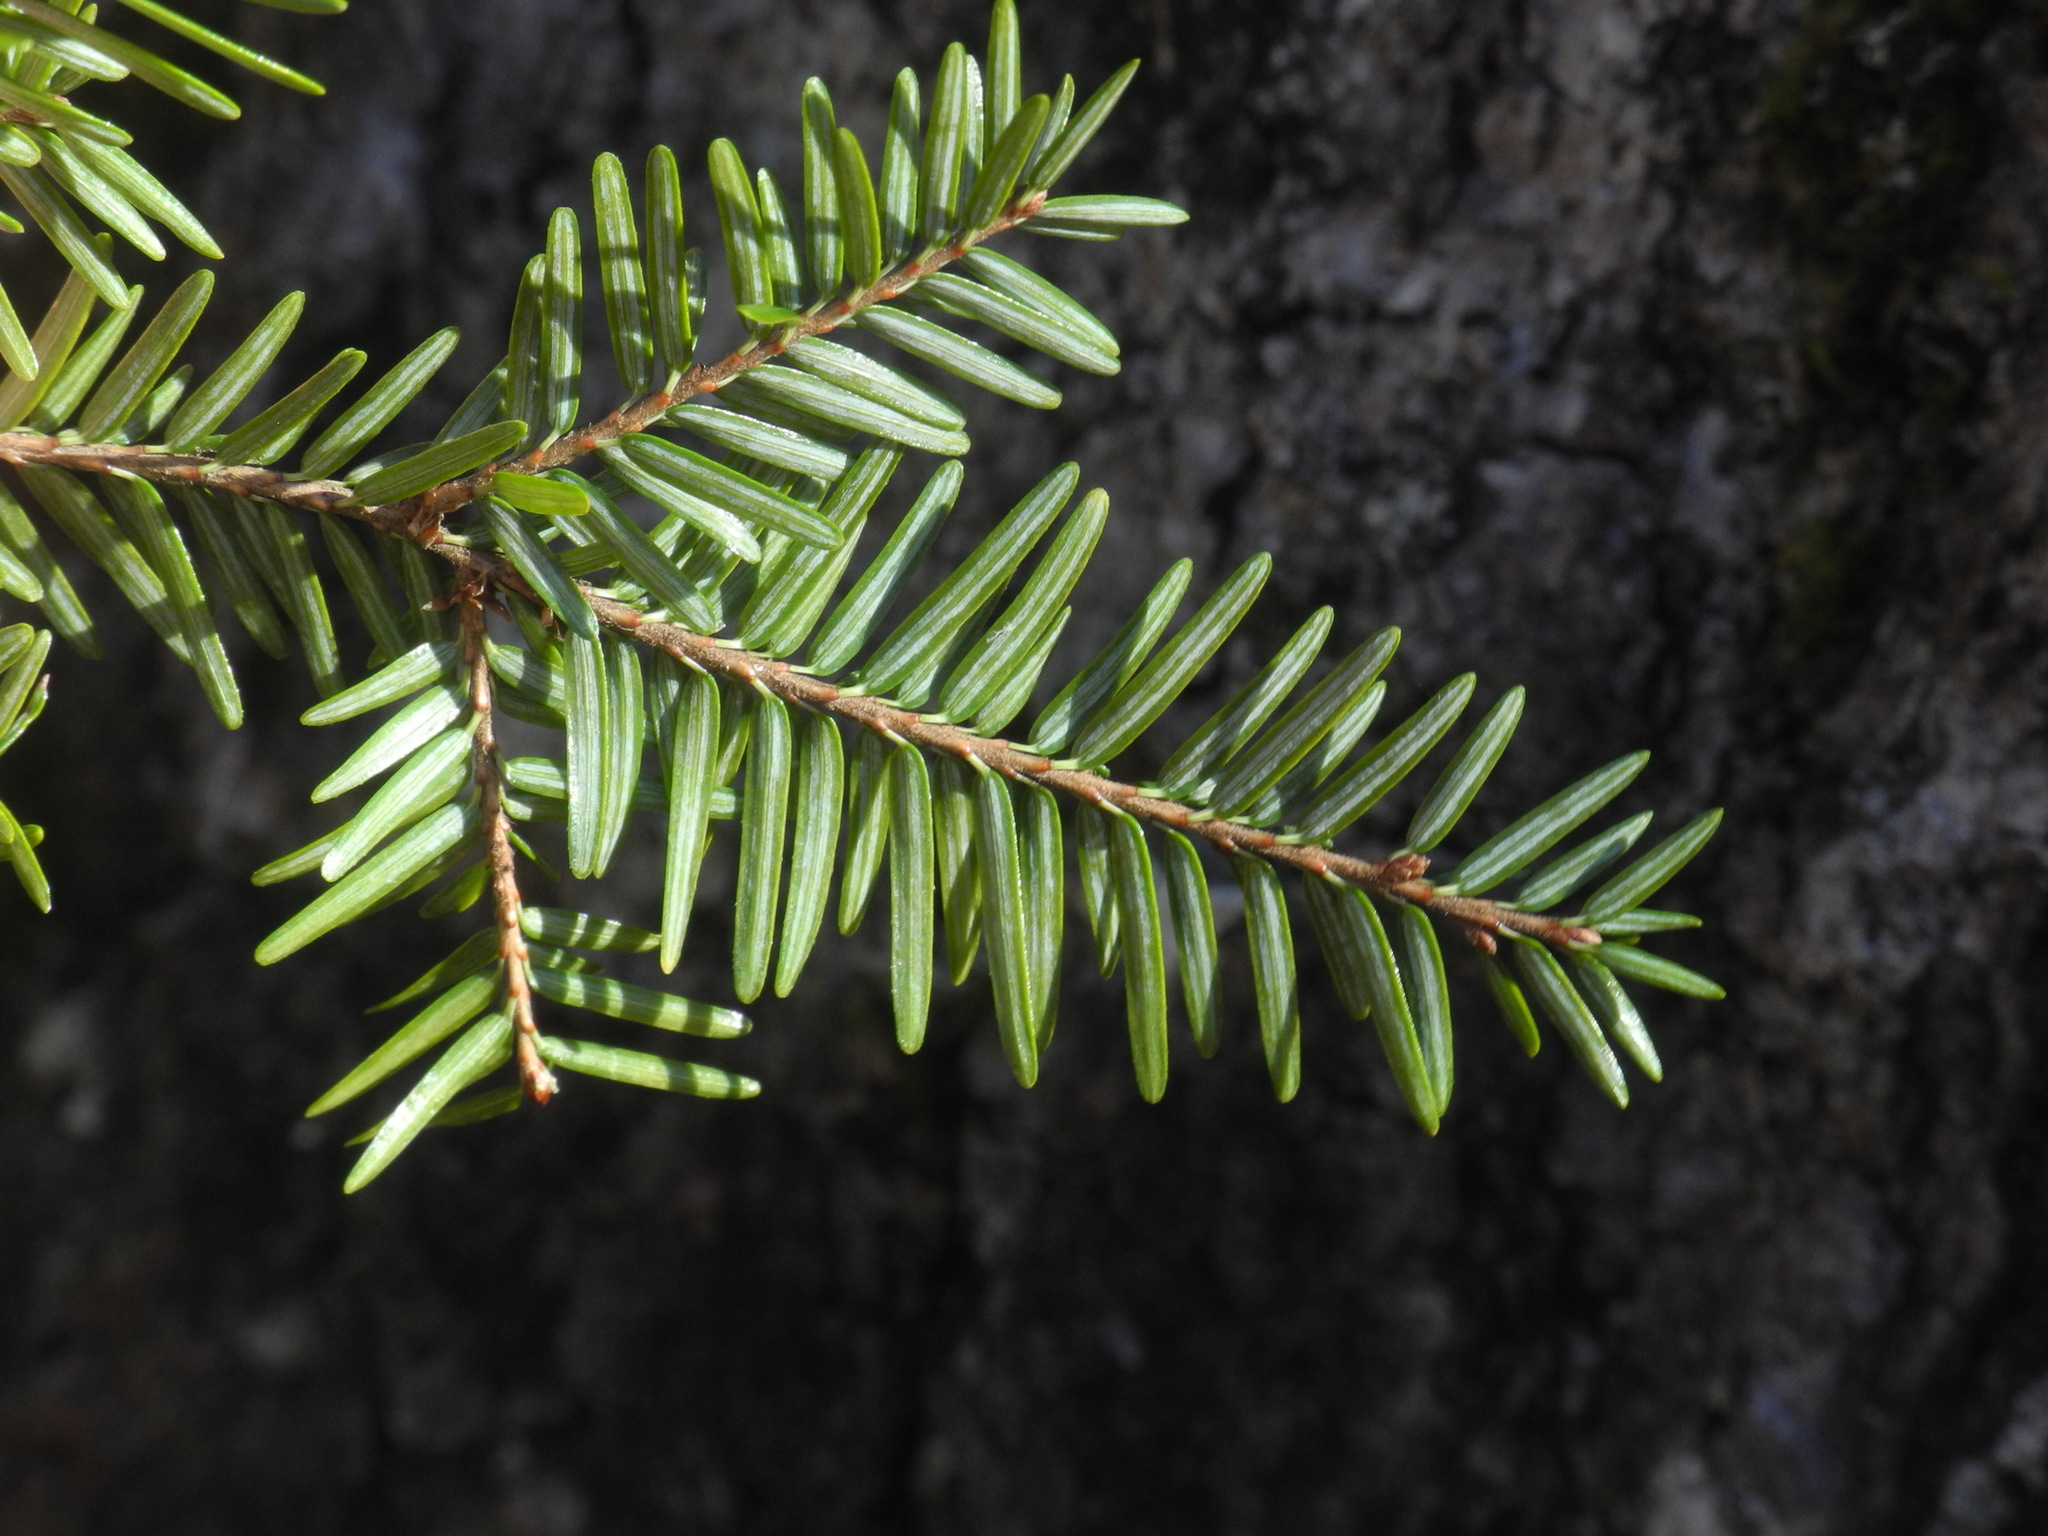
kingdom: Plantae
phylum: Tracheophyta
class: Pinopsida
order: Pinales
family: Pinaceae
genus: Tsuga
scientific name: Tsuga canadensis
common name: Eastern hemlock
